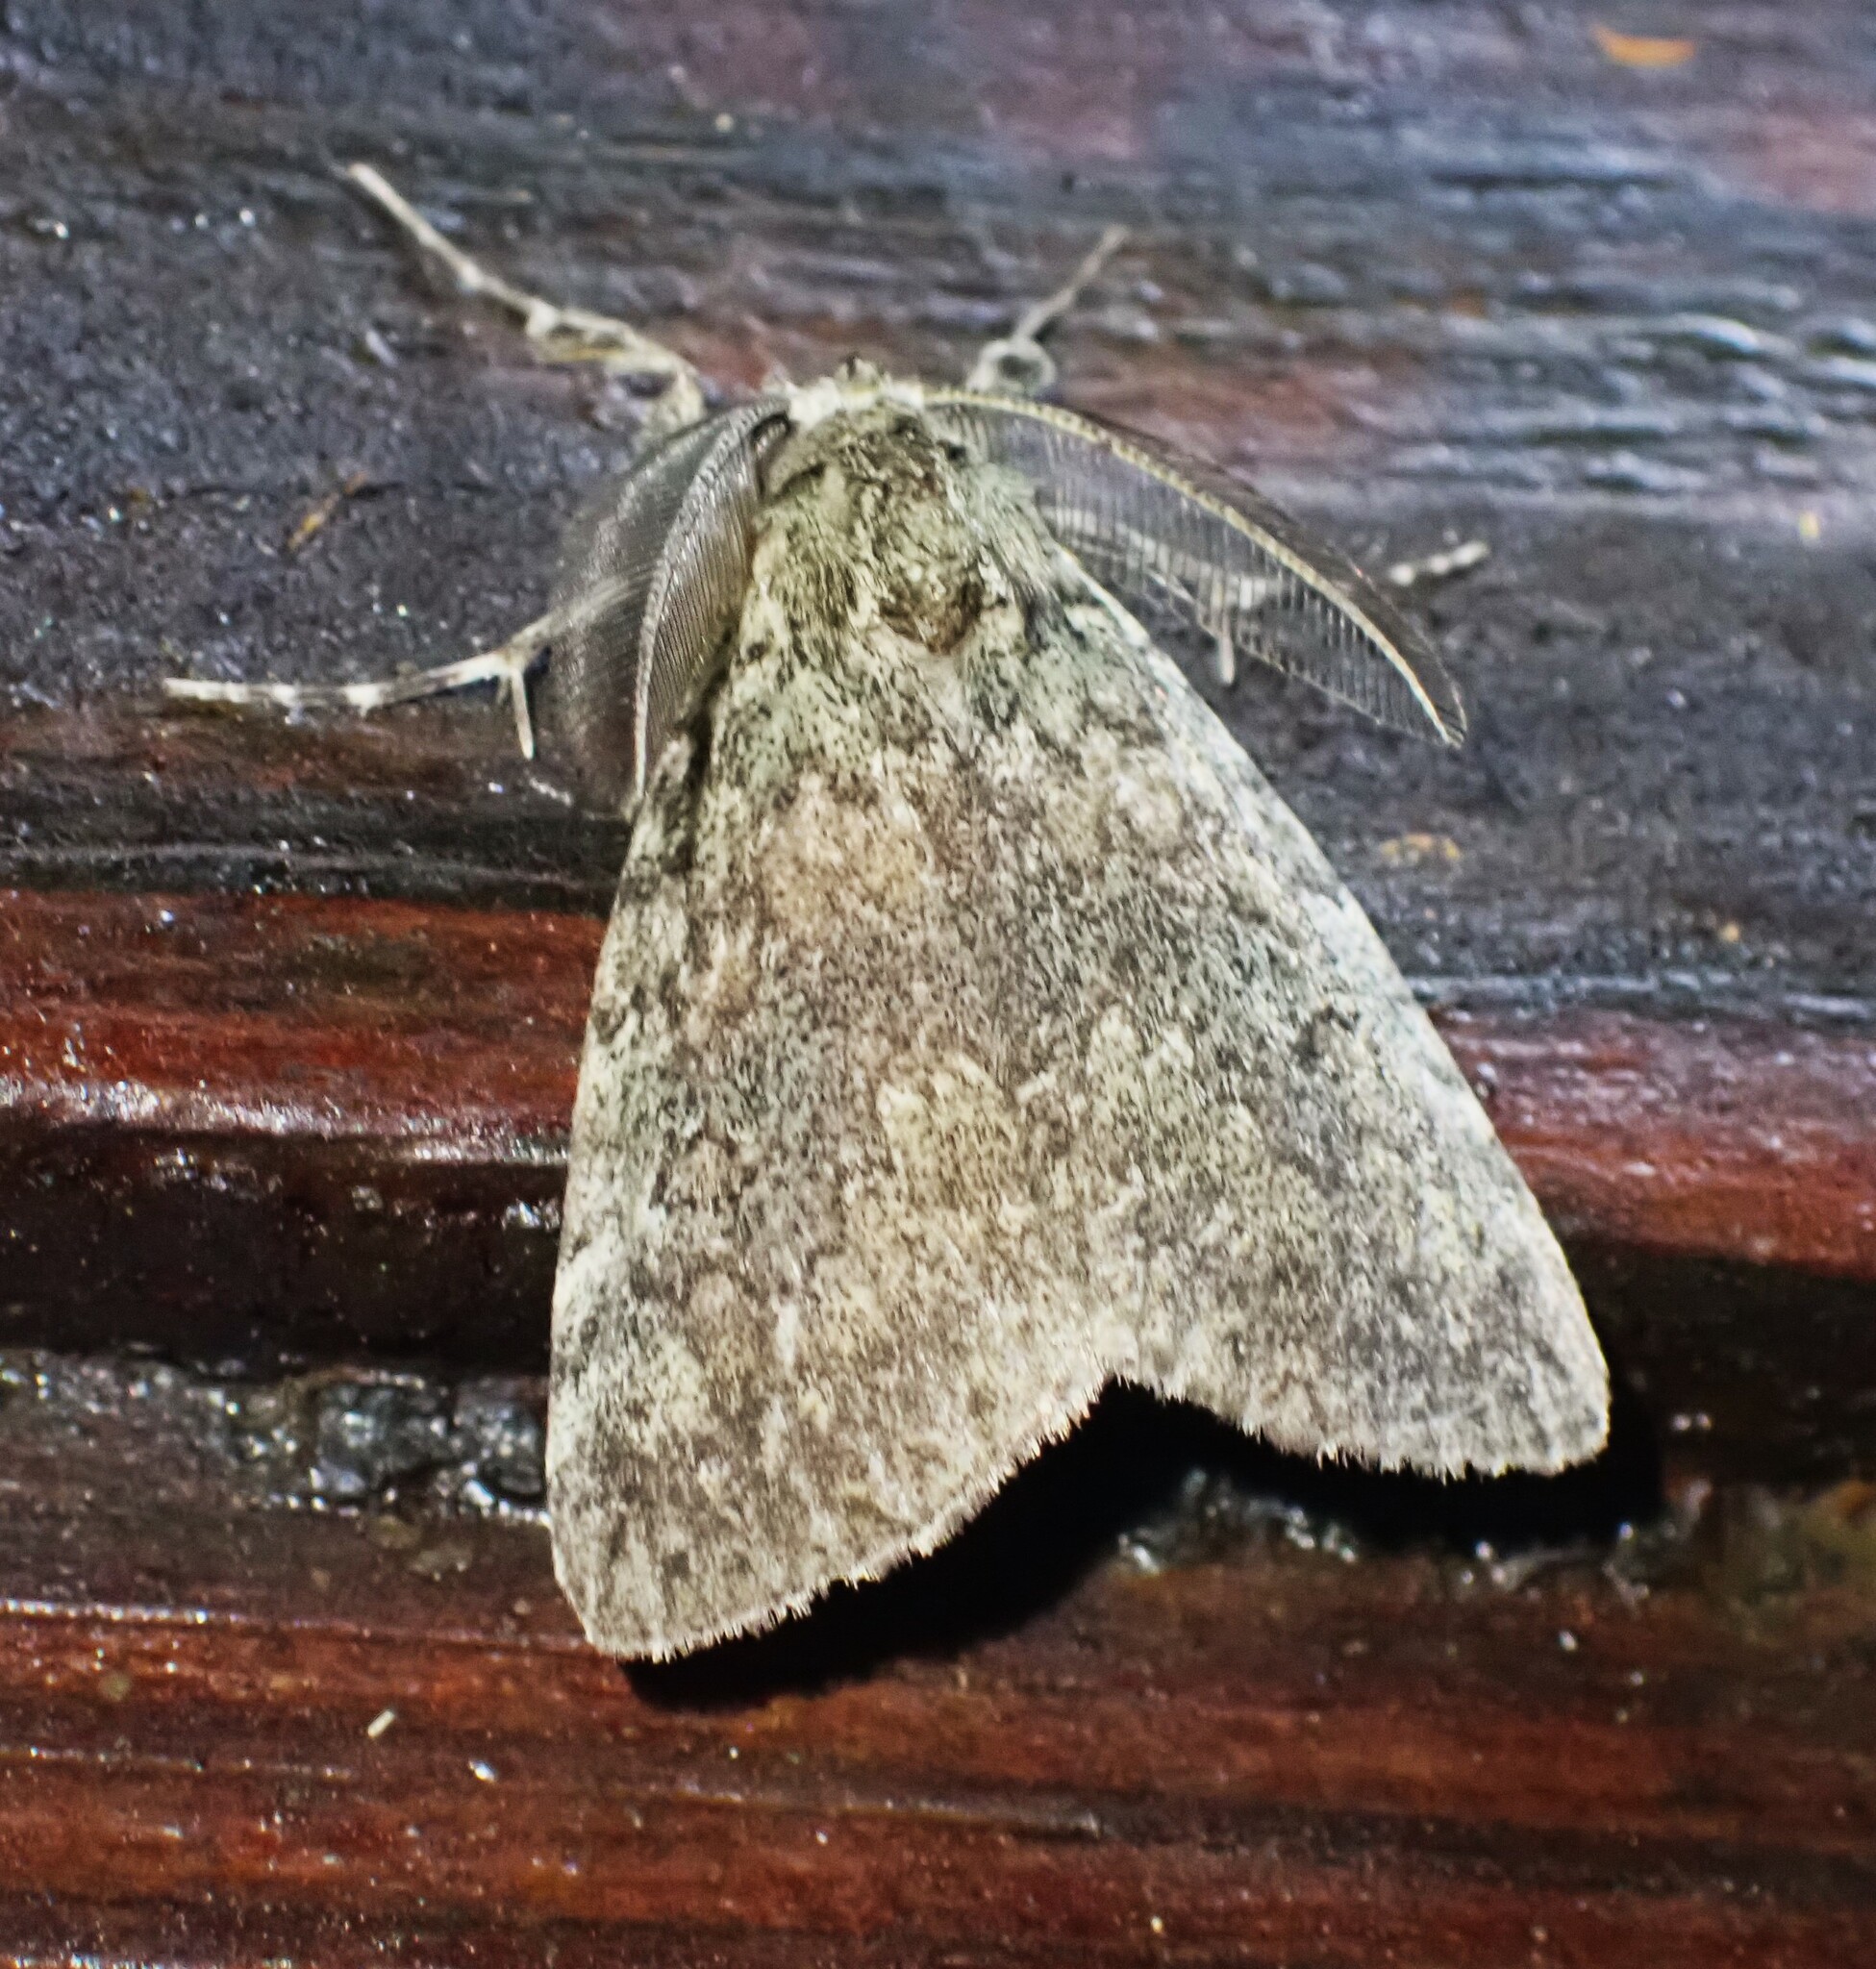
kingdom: Animalia
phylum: Arthropoda
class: Insecta
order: Lepidoptera
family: Erebidae
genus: Laelia
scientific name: Laelia fusca
